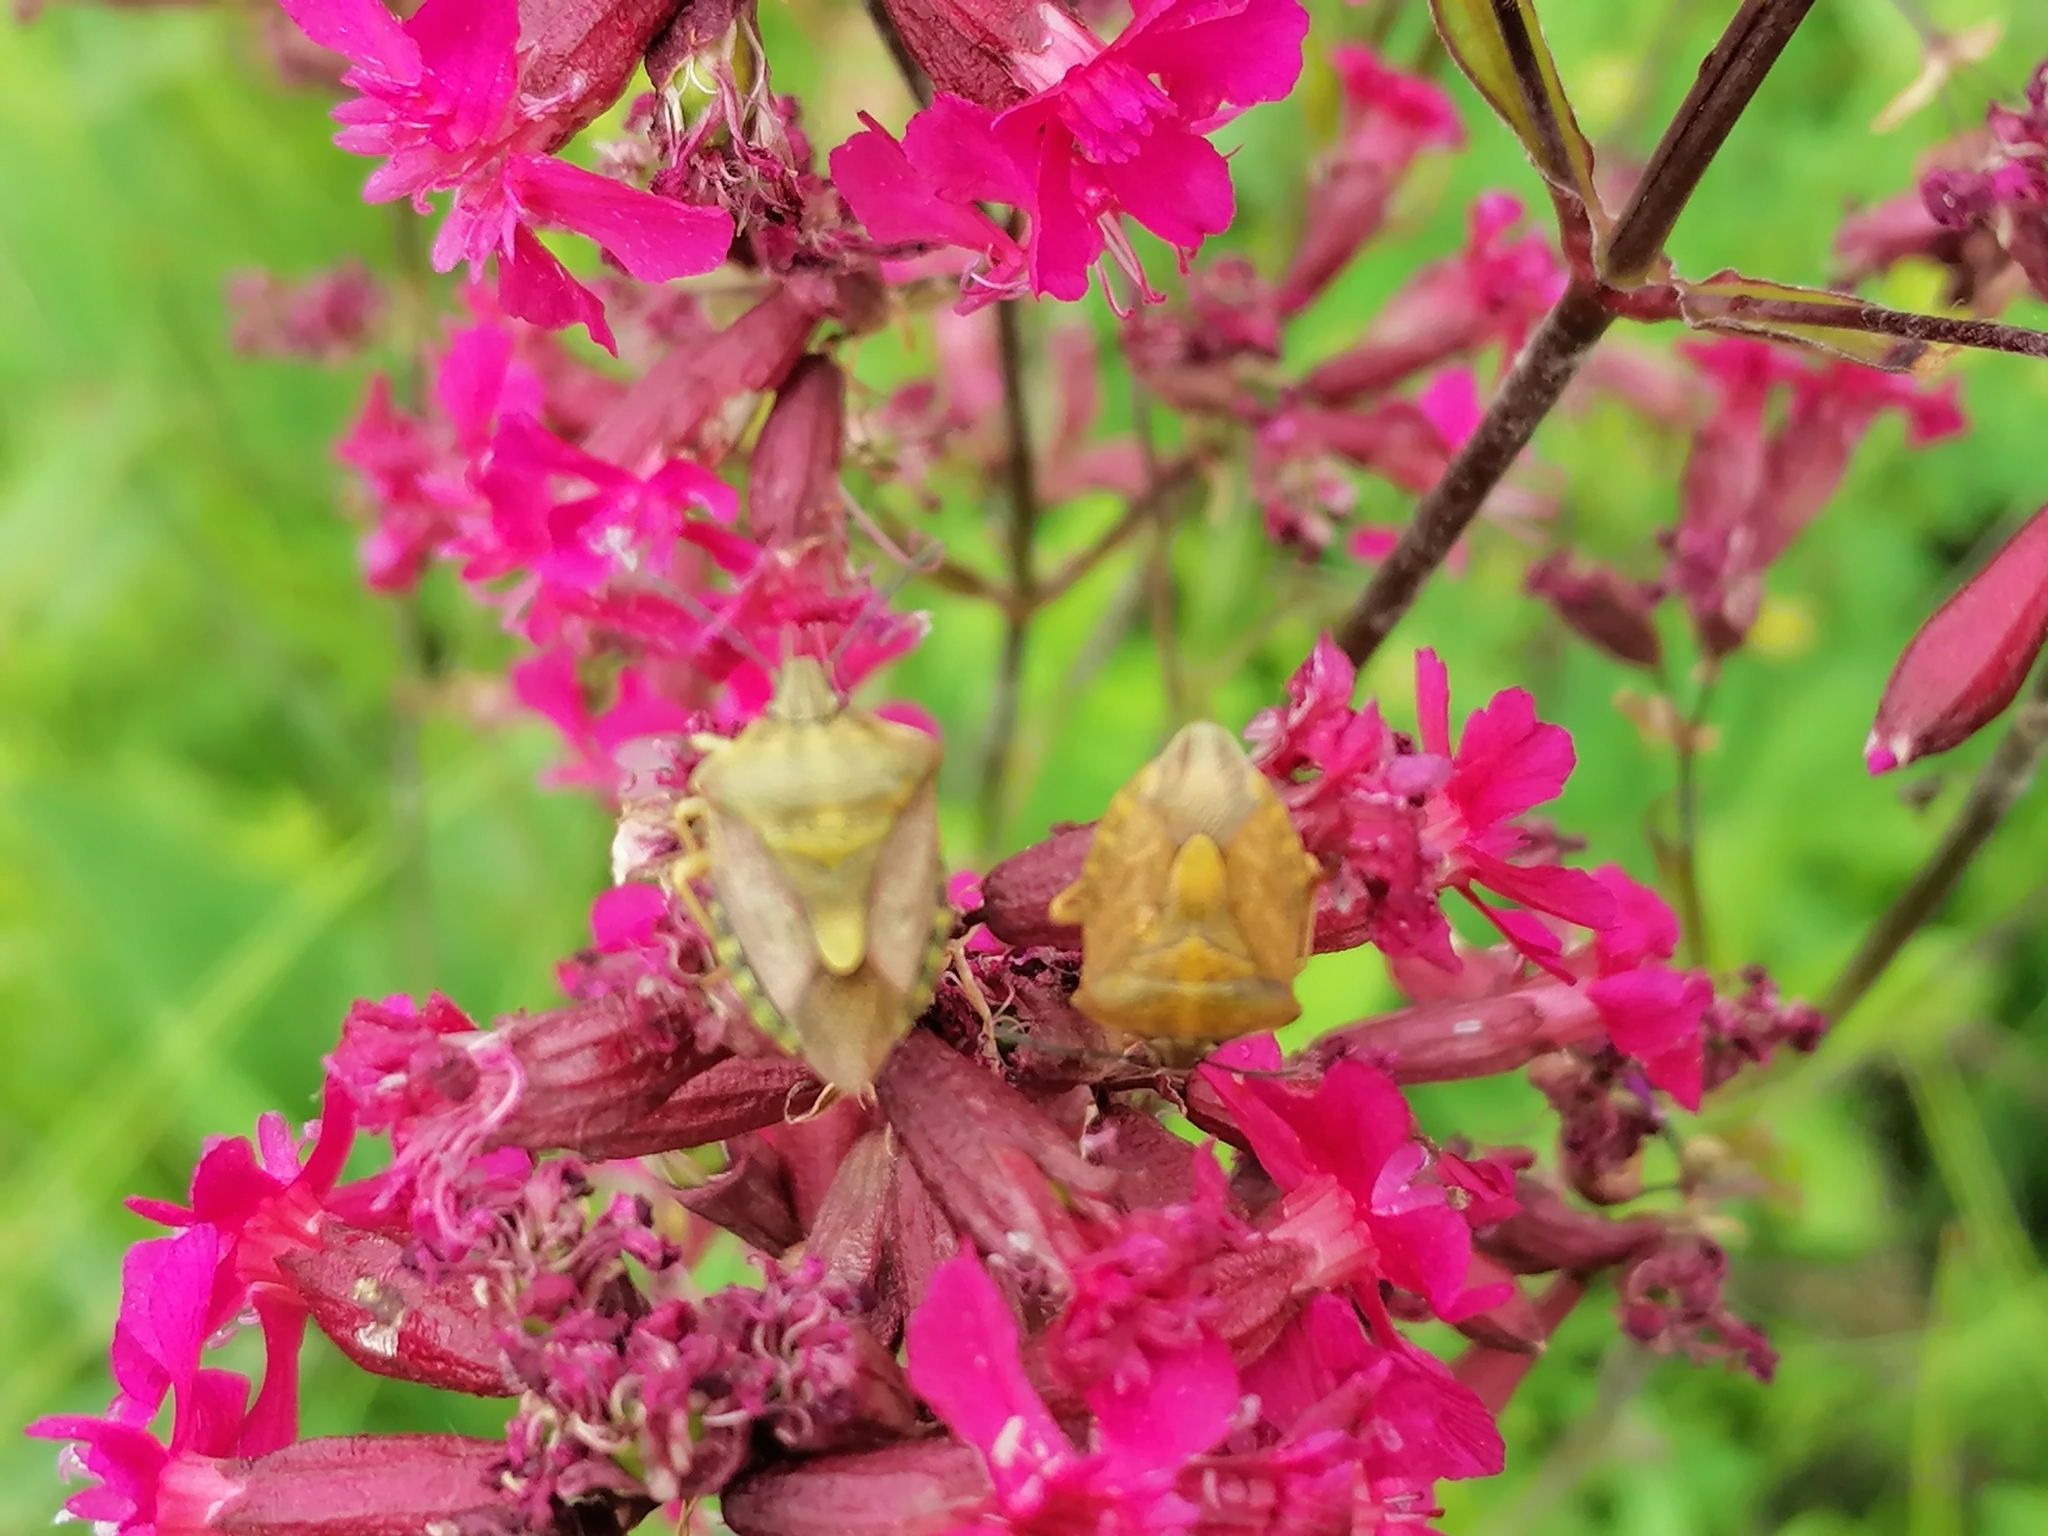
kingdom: Animalia
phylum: Arthropoda
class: Insecta
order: Hemiptera
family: Pentatomidae
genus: Carpocoris
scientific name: Carpocoris purpureipennis
